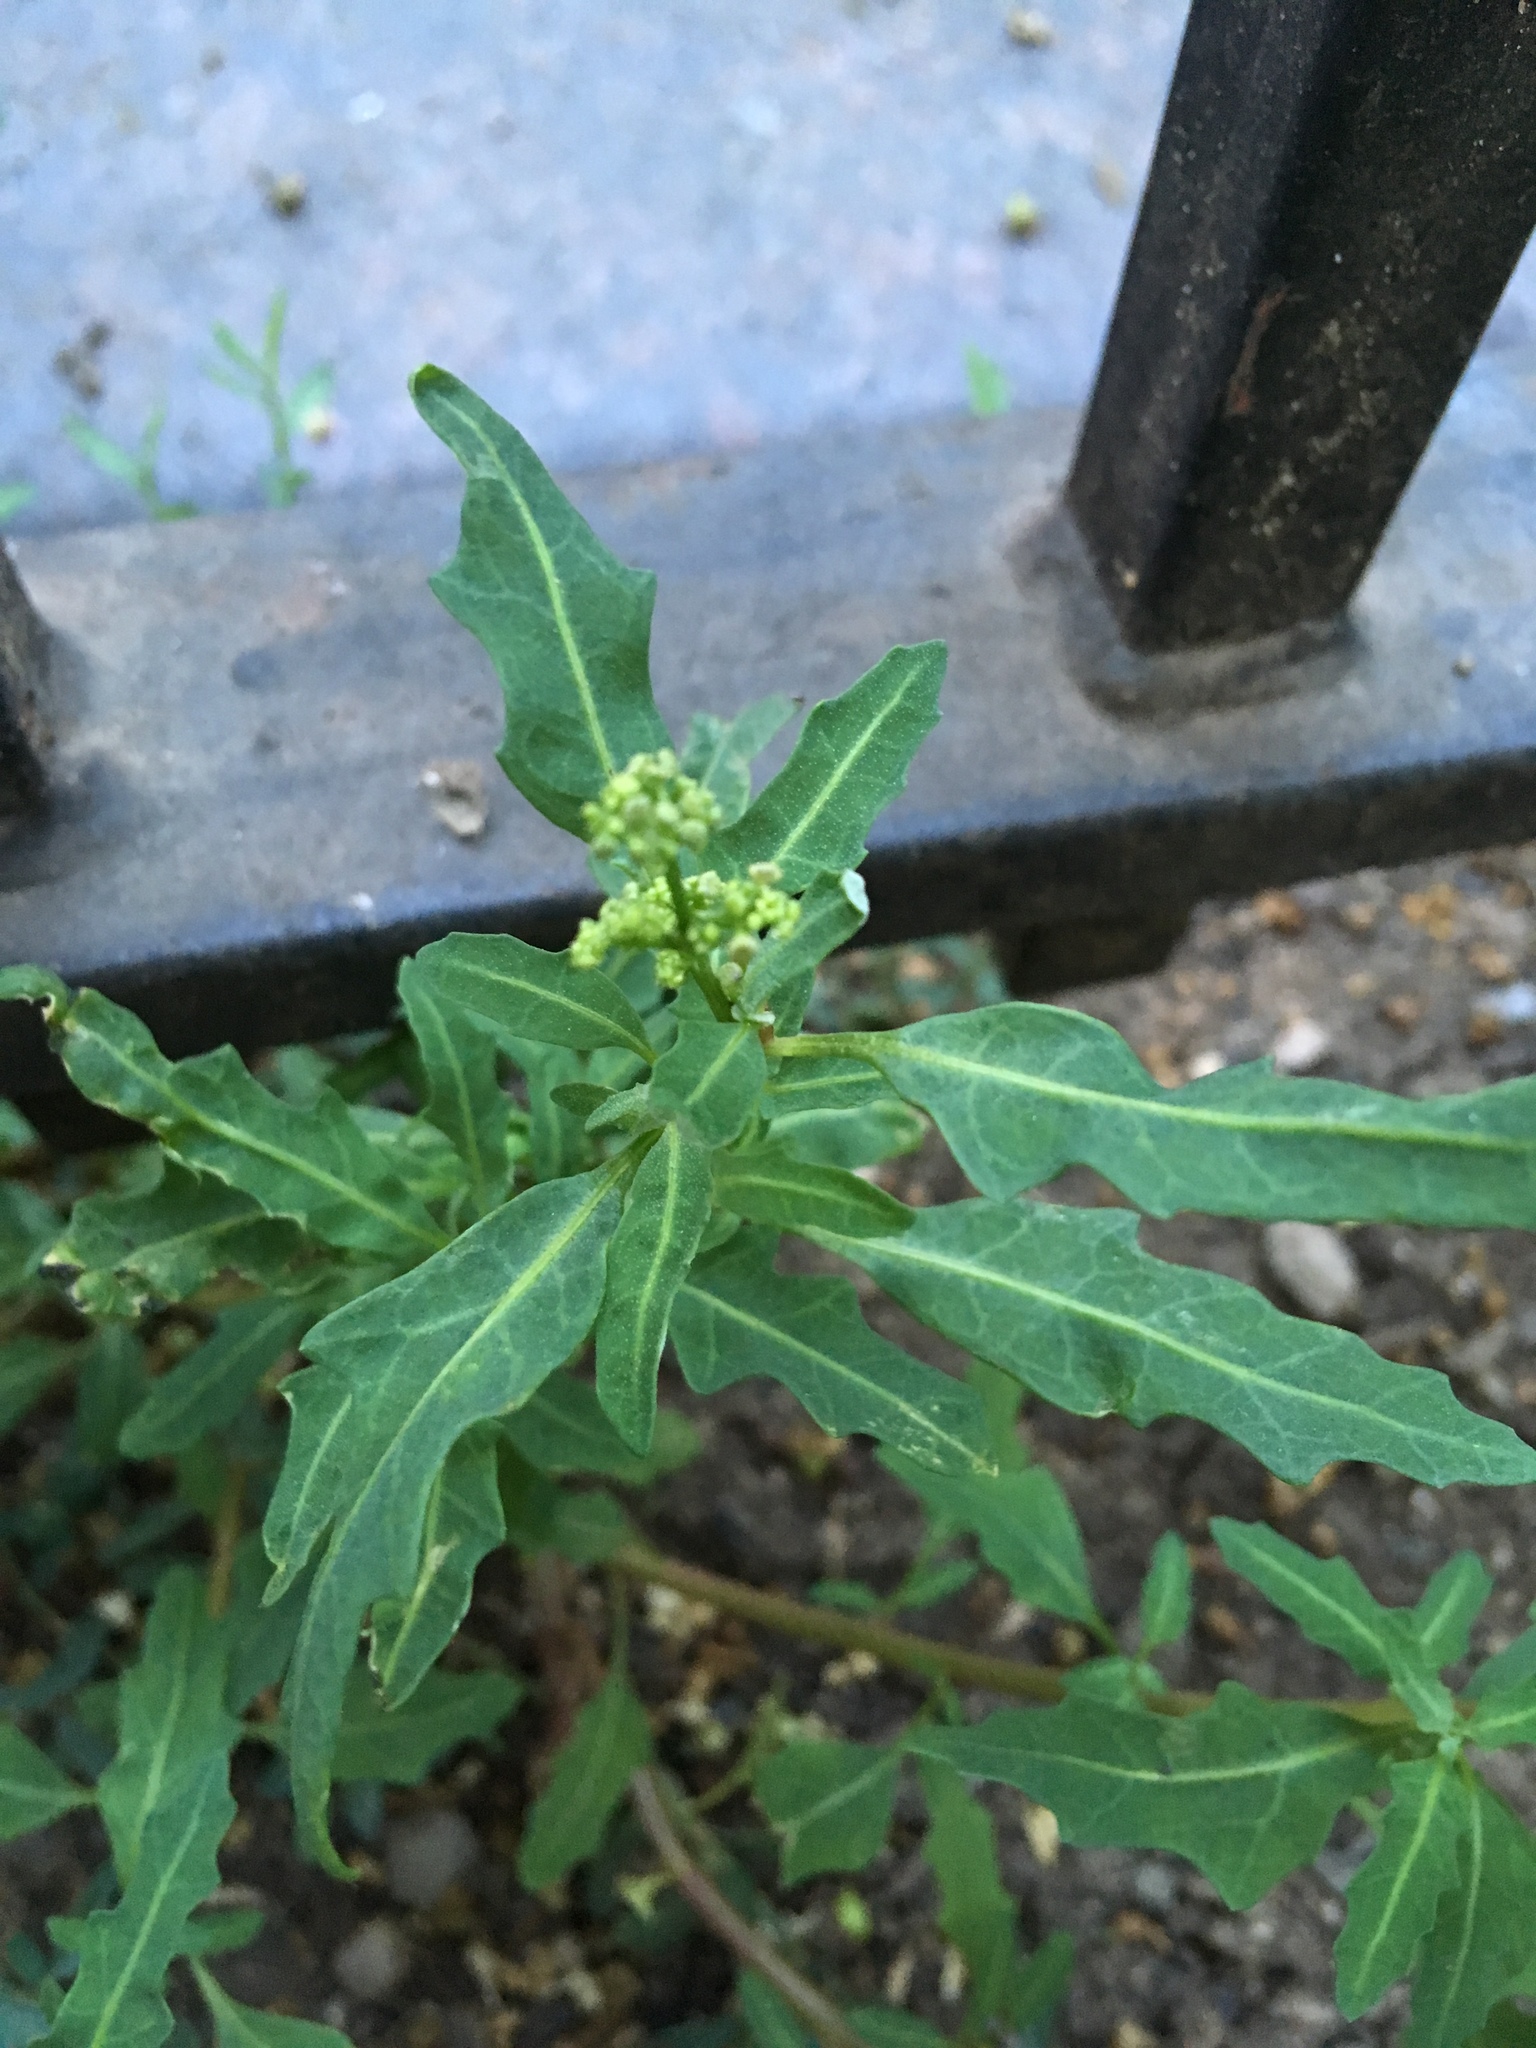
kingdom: Plantae
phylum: Tracheophyta
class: Magnoliopsida
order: Caryophyllales
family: Amaranthaceae
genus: Oxybasis
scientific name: Oxybasis glauca
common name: Glaucous goosefoot
